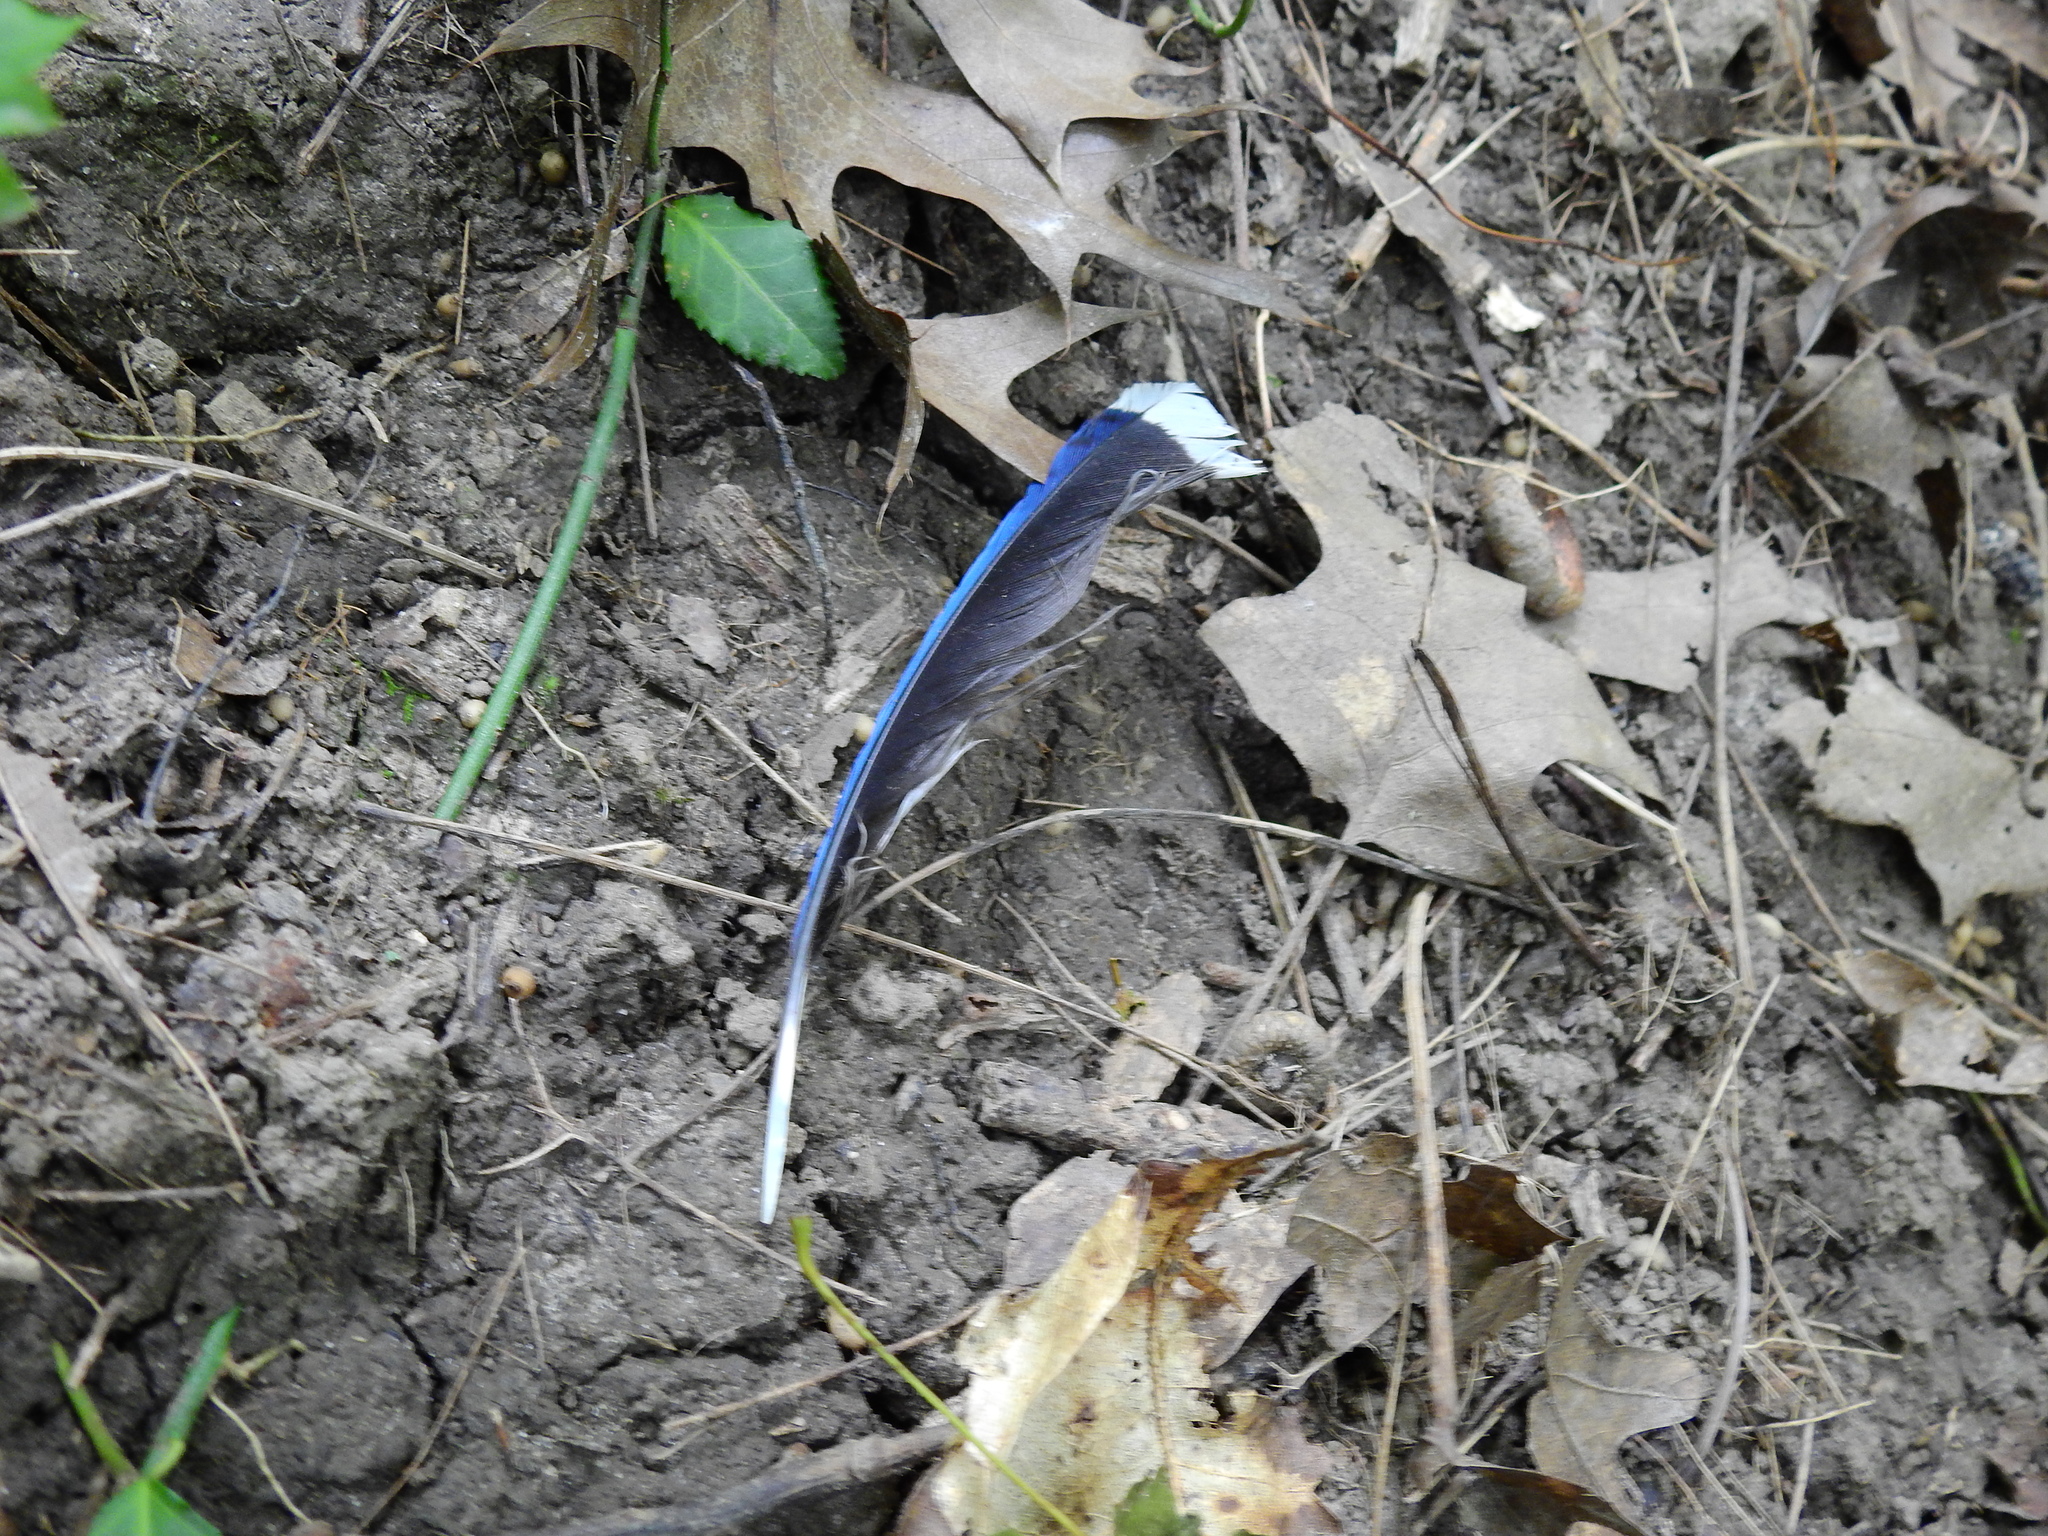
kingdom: Animalia
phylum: Chordata
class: Aves
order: Passeriformes
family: Corvidae
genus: Cyanocitta
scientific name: Cyanocitta cristata
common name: Blue jay
